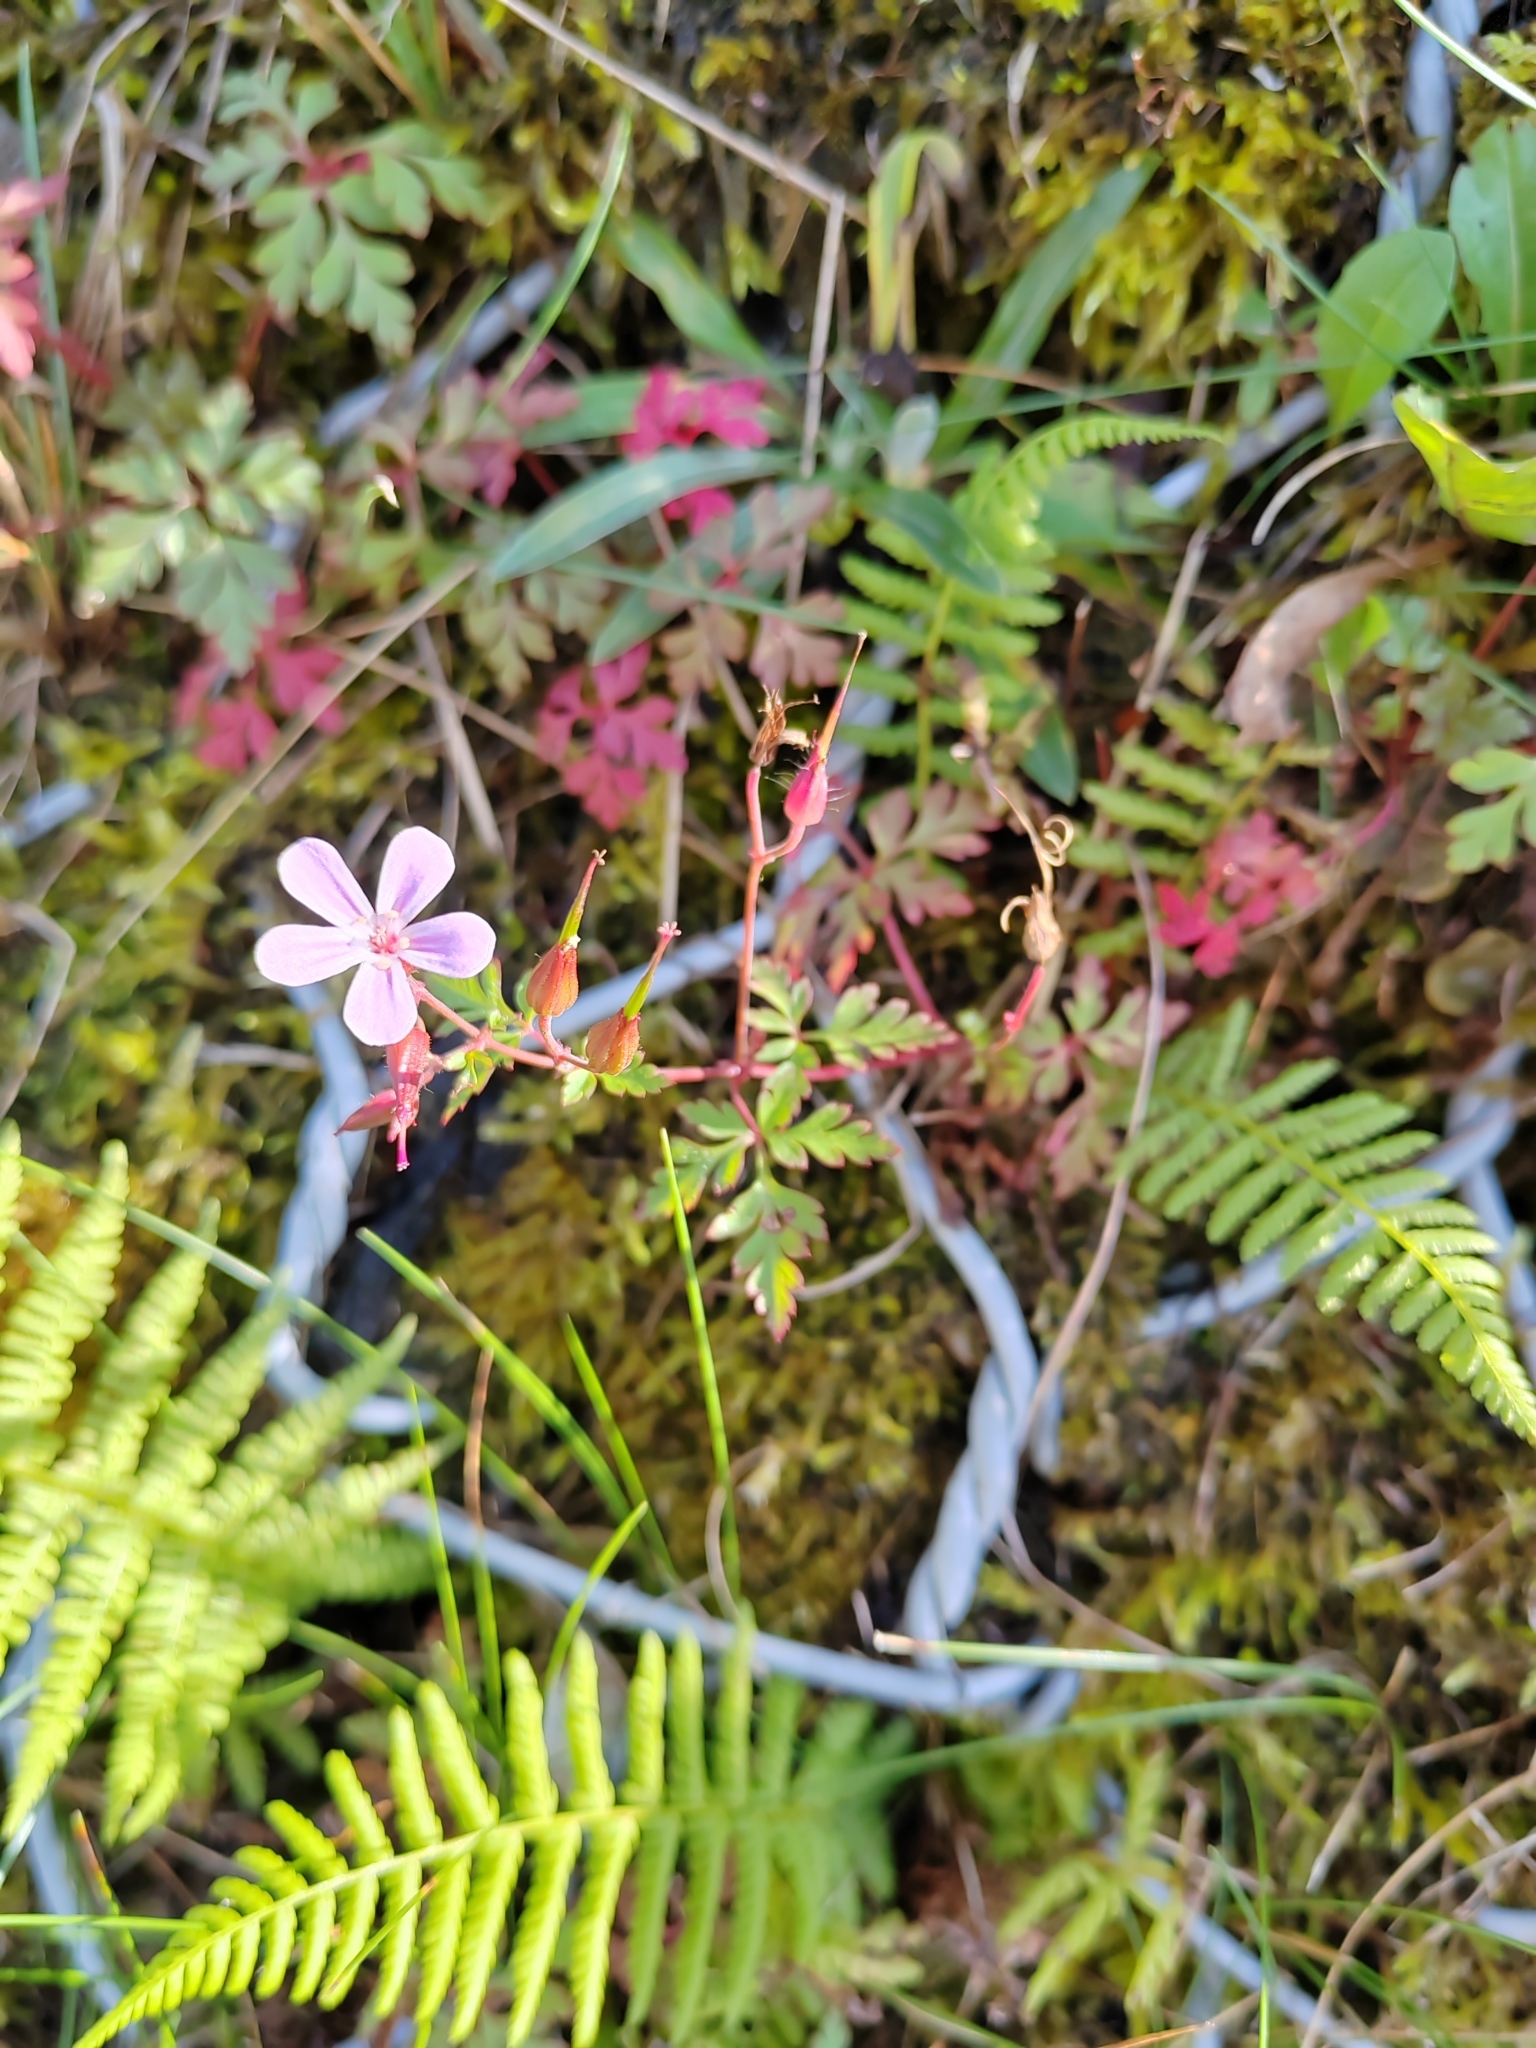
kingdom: Plantae
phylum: Tracheophyta
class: Magnoliopsida
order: Geraniales
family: Geraniaceae
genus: Geranium
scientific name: Geranium robertianum
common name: Herb-robert
